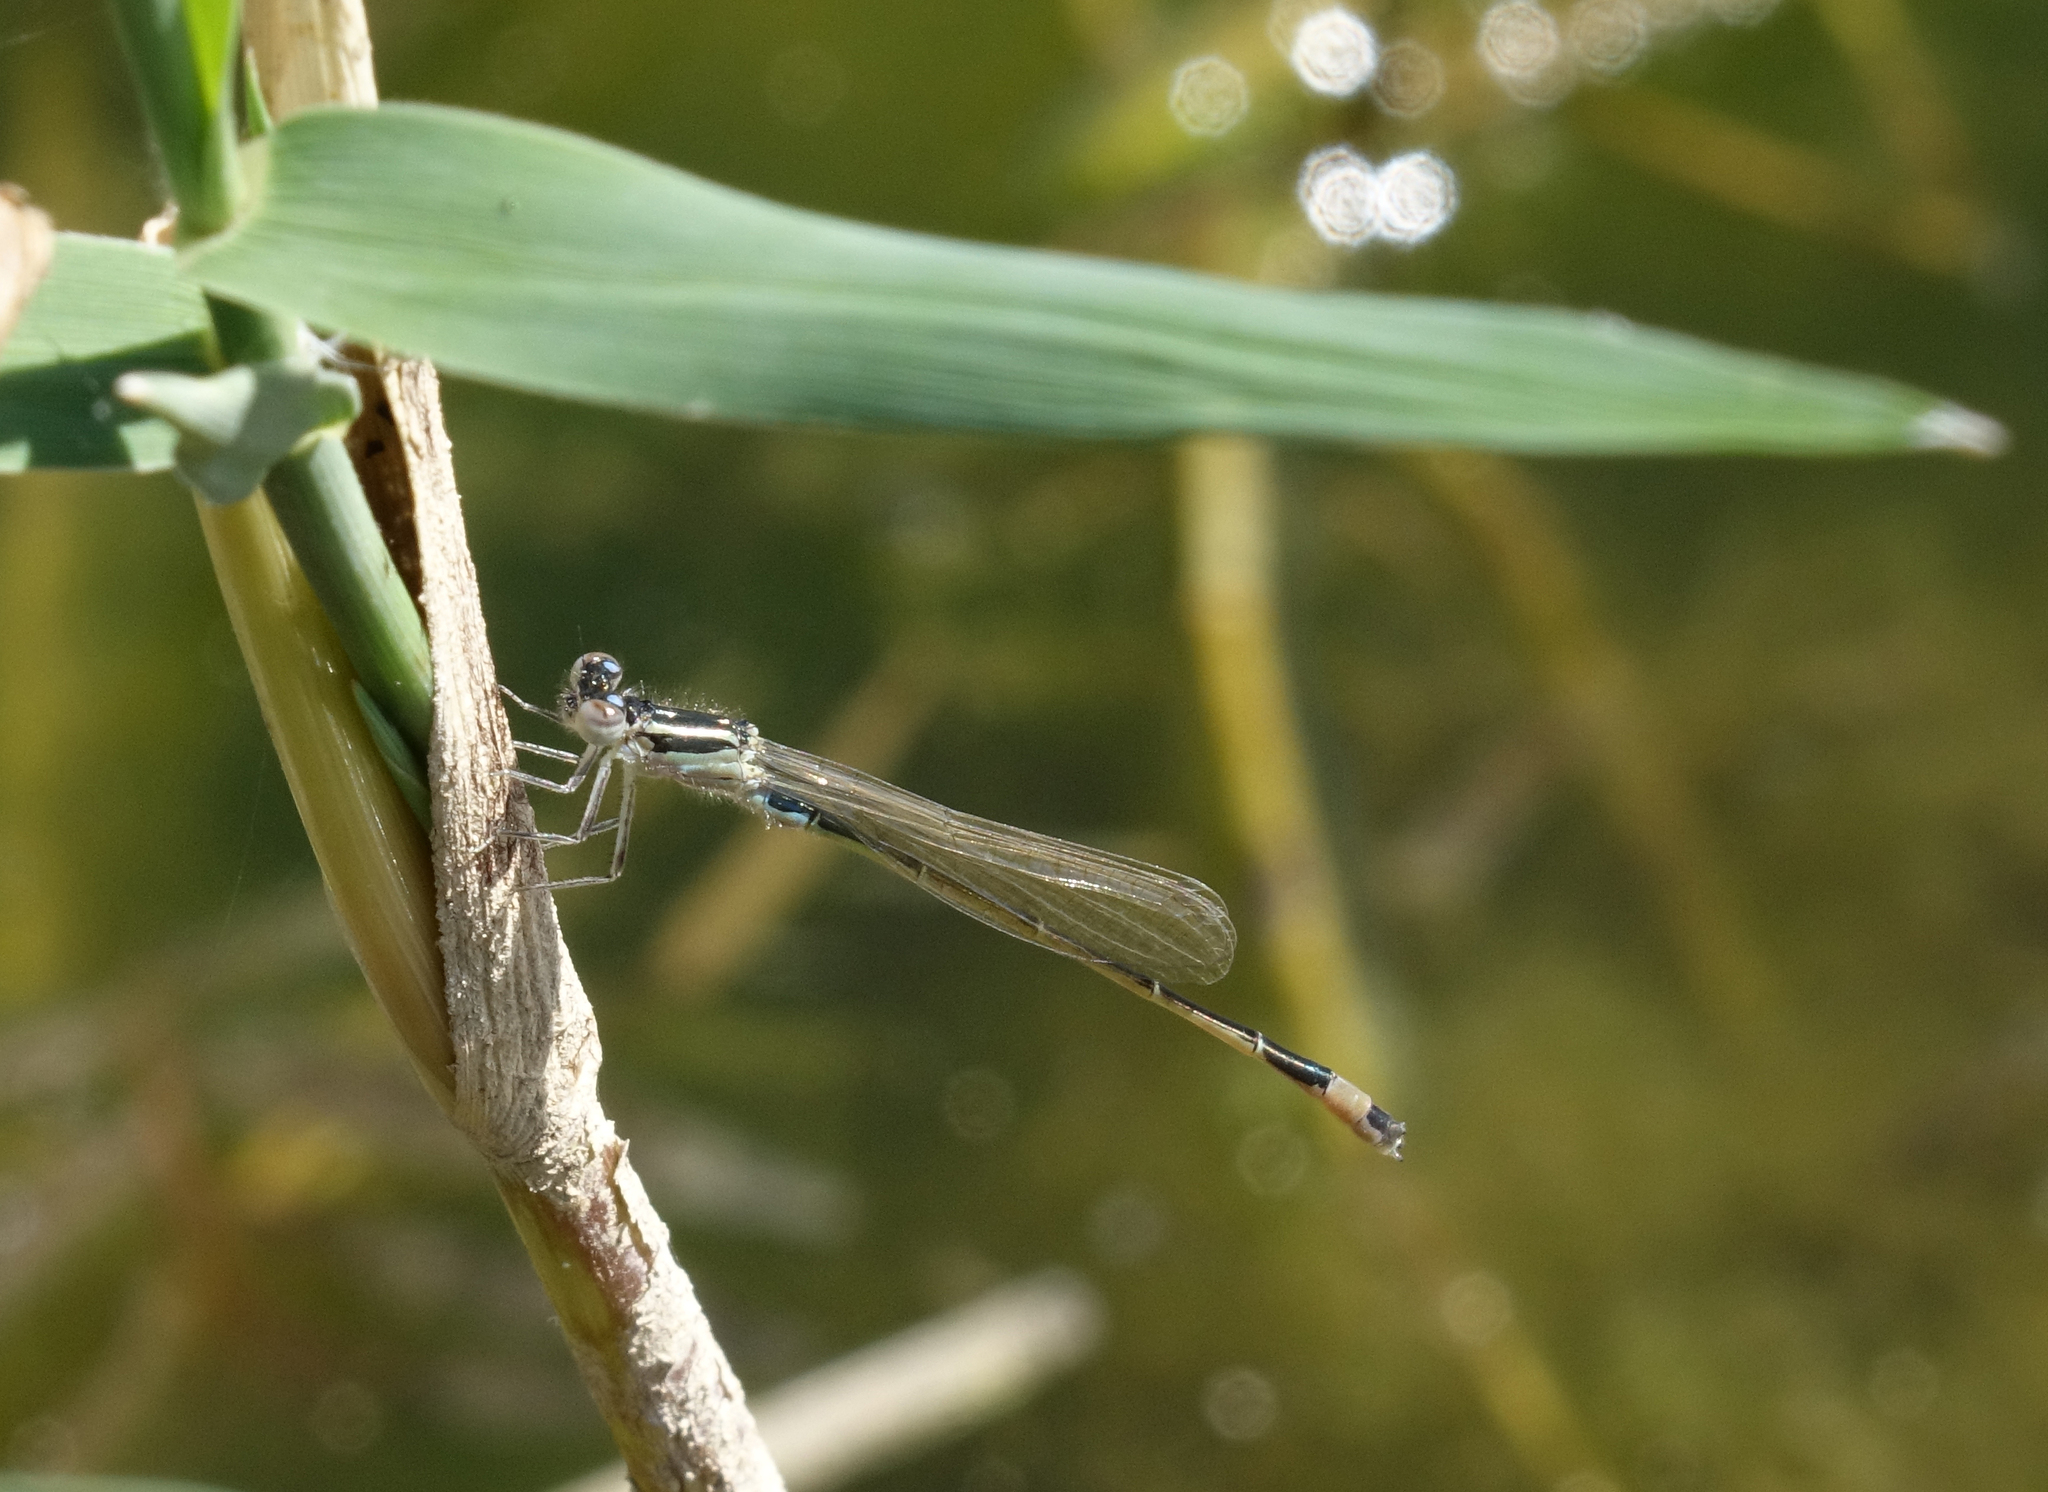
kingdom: Animalia
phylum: Arthropoda
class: Insecta
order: Odonata
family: Coenagrionidae
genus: Ischnura
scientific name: Ischnura elegans
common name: Blue-tailed damselfly
